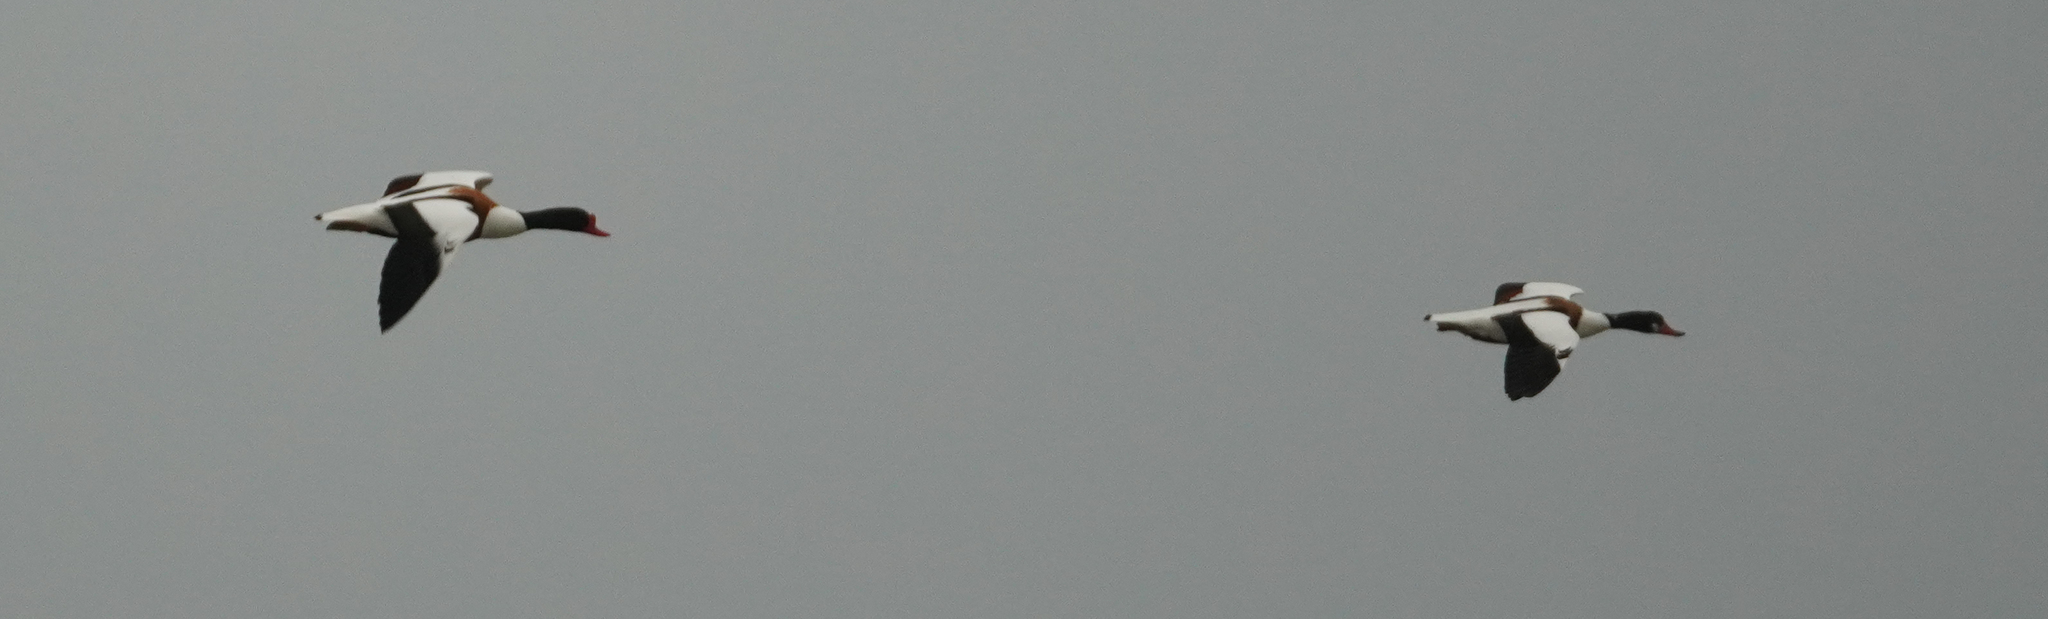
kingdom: Animalia
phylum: Chordata
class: Aves
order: Anseriformes
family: Anatidae
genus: Tadorna
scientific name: Tadorna tadorna
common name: Common shelduck
